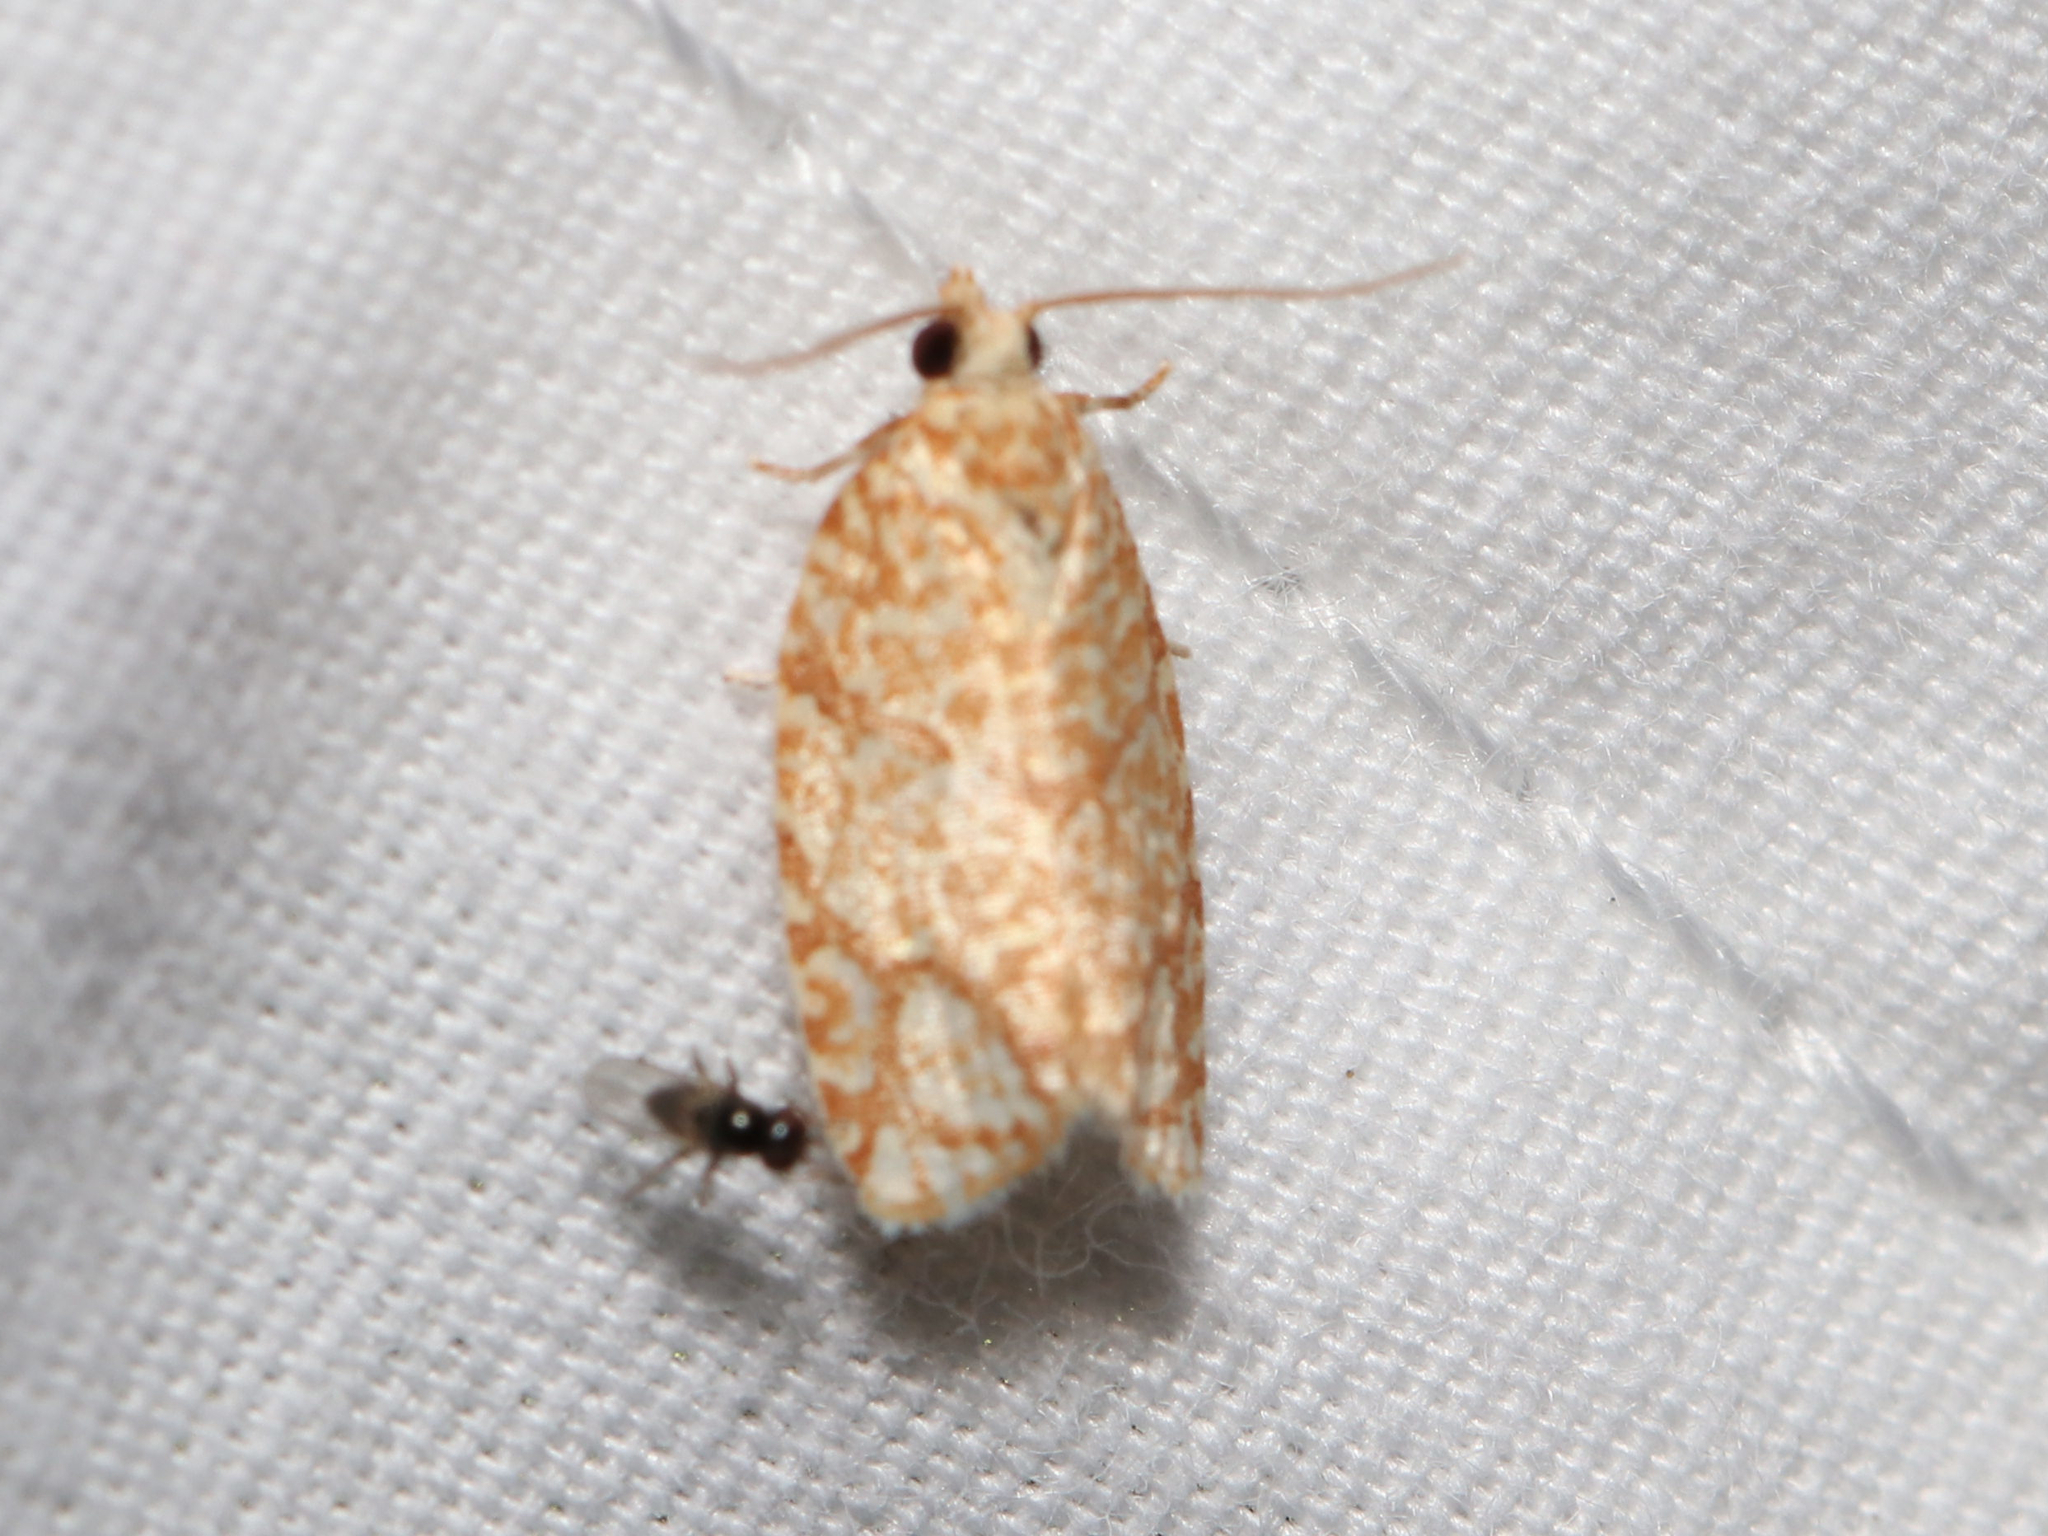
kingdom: Animalia
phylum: Arthropoda
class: Insecta
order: Lepidoptera
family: Tortricidae
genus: Argyrotaenia
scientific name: Argyrotaenia quercifoliana
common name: Yellow-winged oak leafroller moth
